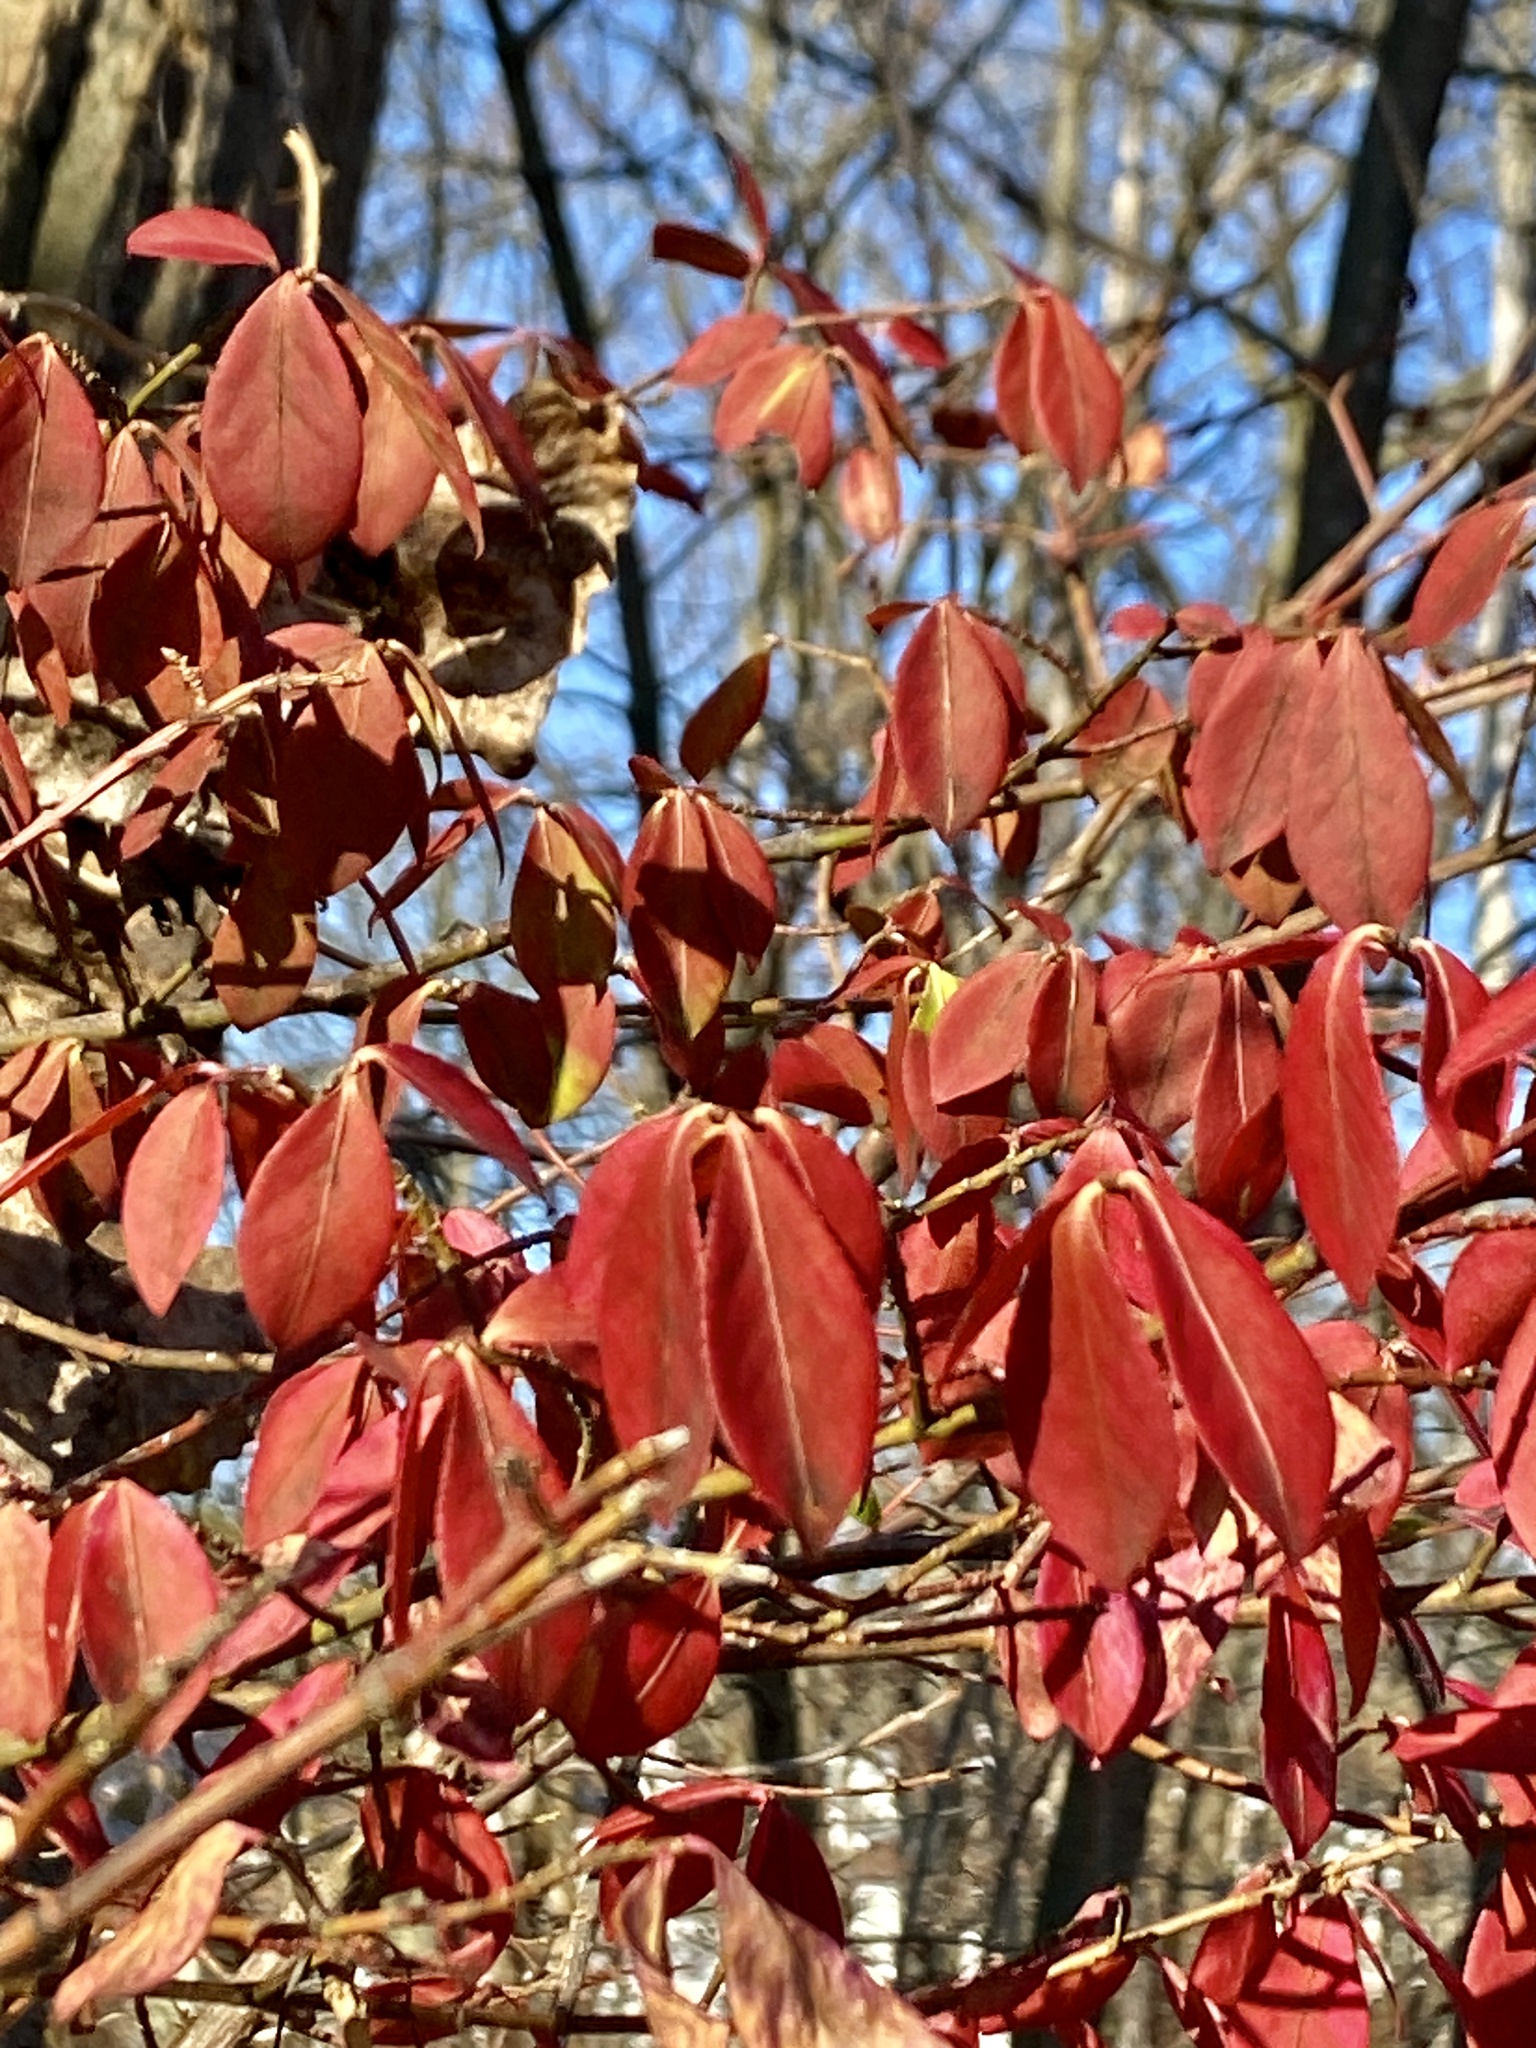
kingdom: Plantae
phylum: Tracheophyta
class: Magnoliopsida
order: Celastrales
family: Celastraceae
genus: Euonymus
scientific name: Euonymus alatus
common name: Winged euonymus
